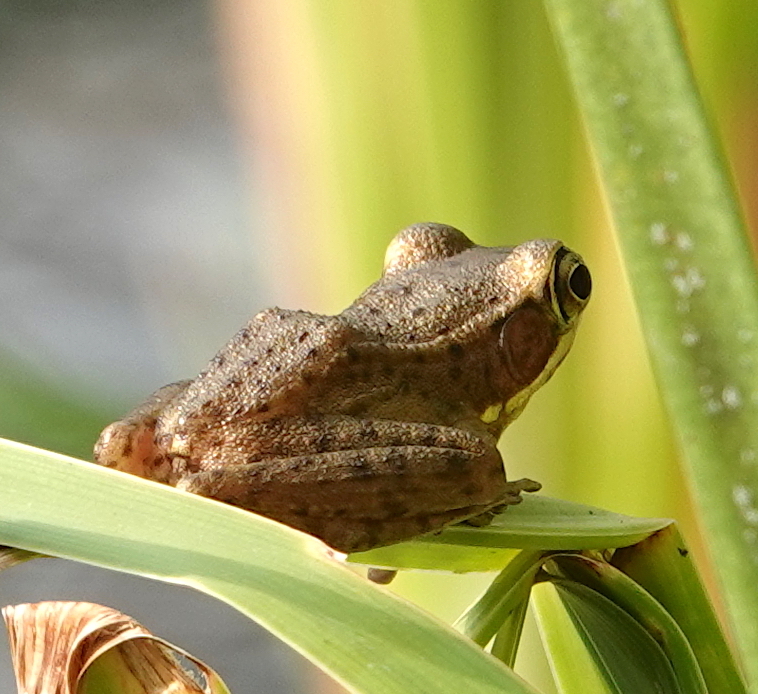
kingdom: Animalia
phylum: Chordata
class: Amphibia
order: Anura
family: Ranidae
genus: Chalcorana
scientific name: Chalcorana chalconota
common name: Schlegel's frog
